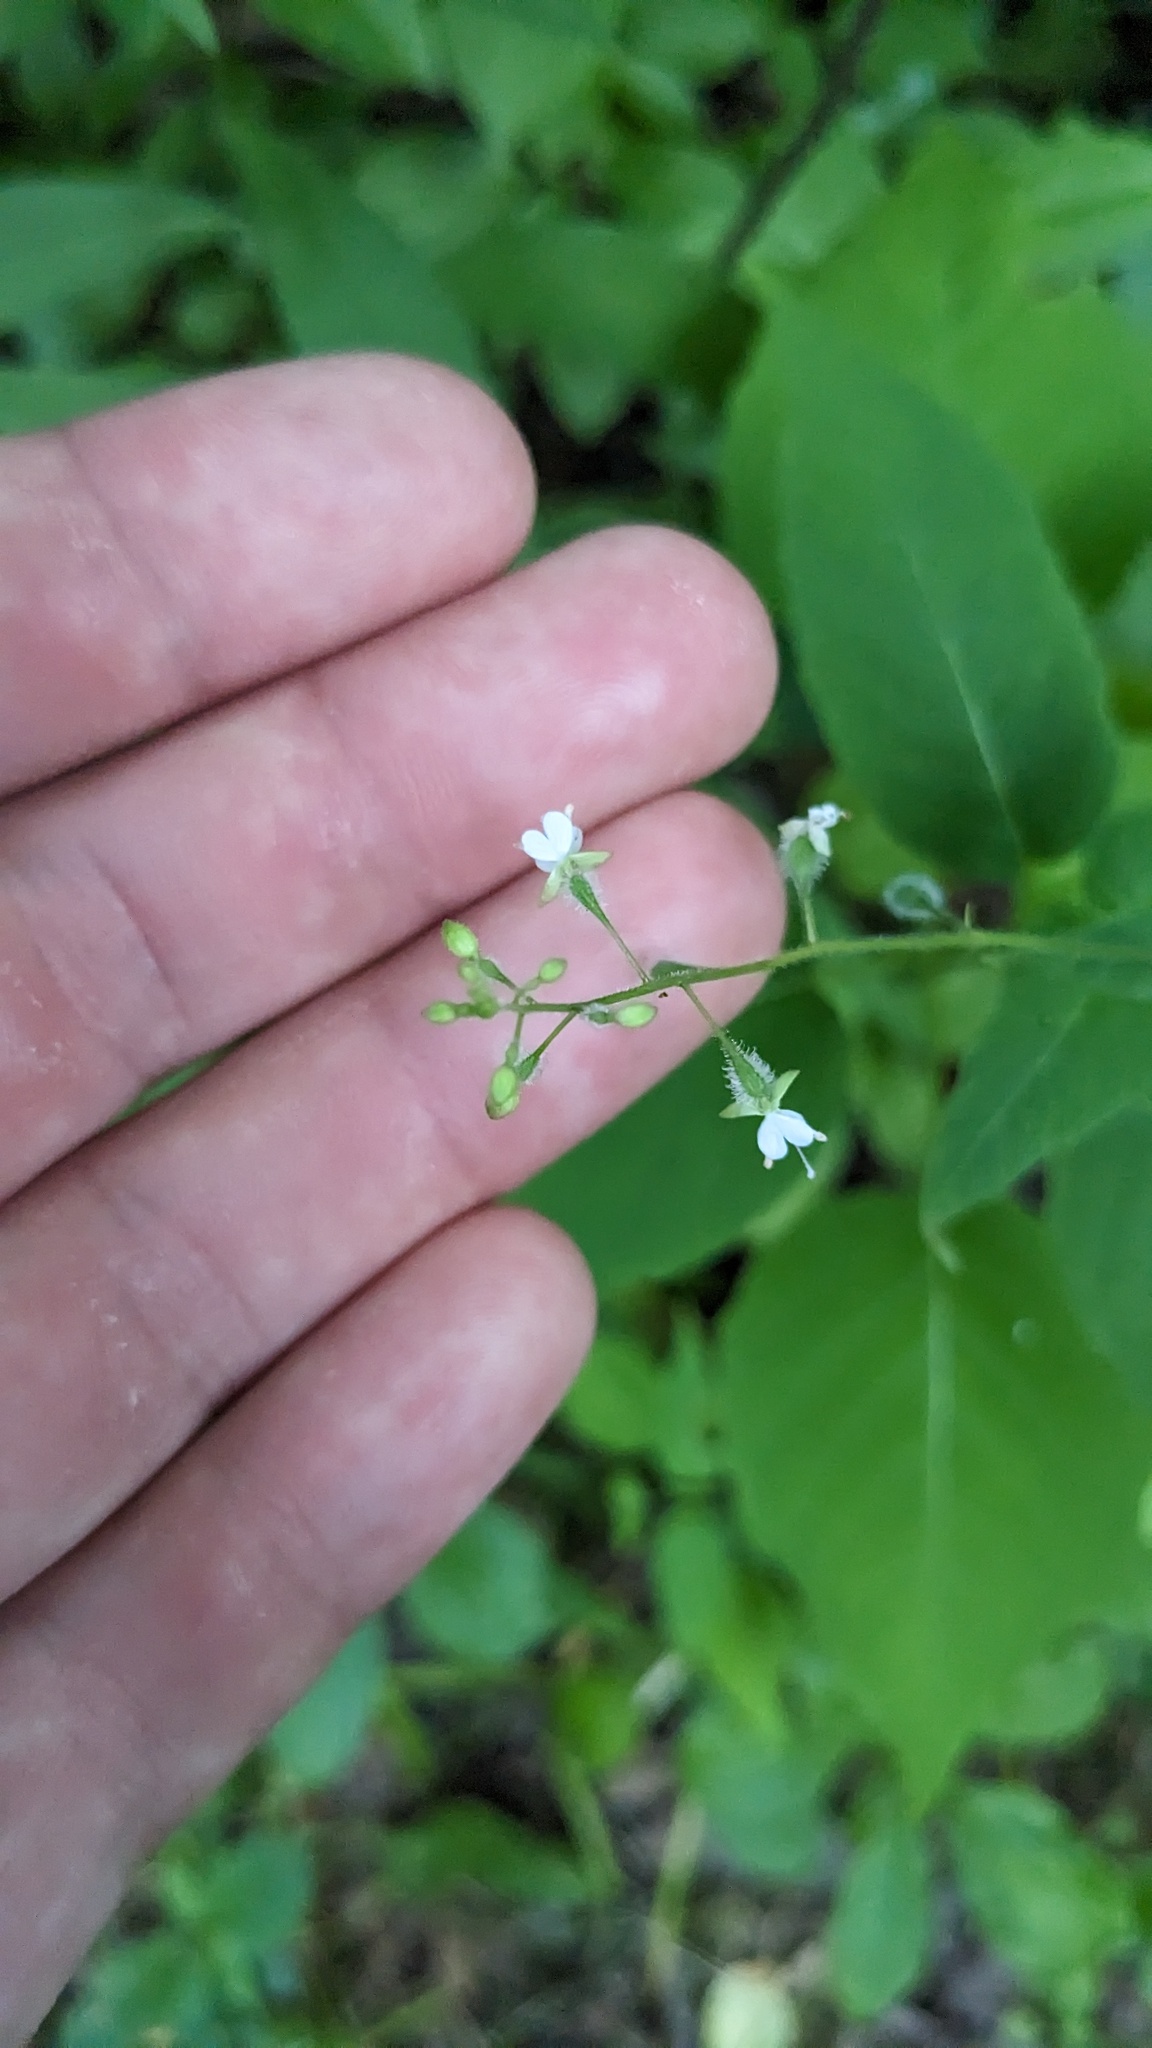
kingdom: Plantae
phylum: Tracheophyta
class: Magnoliopsida
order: Myrtales
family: Onagraceae
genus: Circaea
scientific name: Circaea canadensis
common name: Broad-leaved enchanter's nightshade
